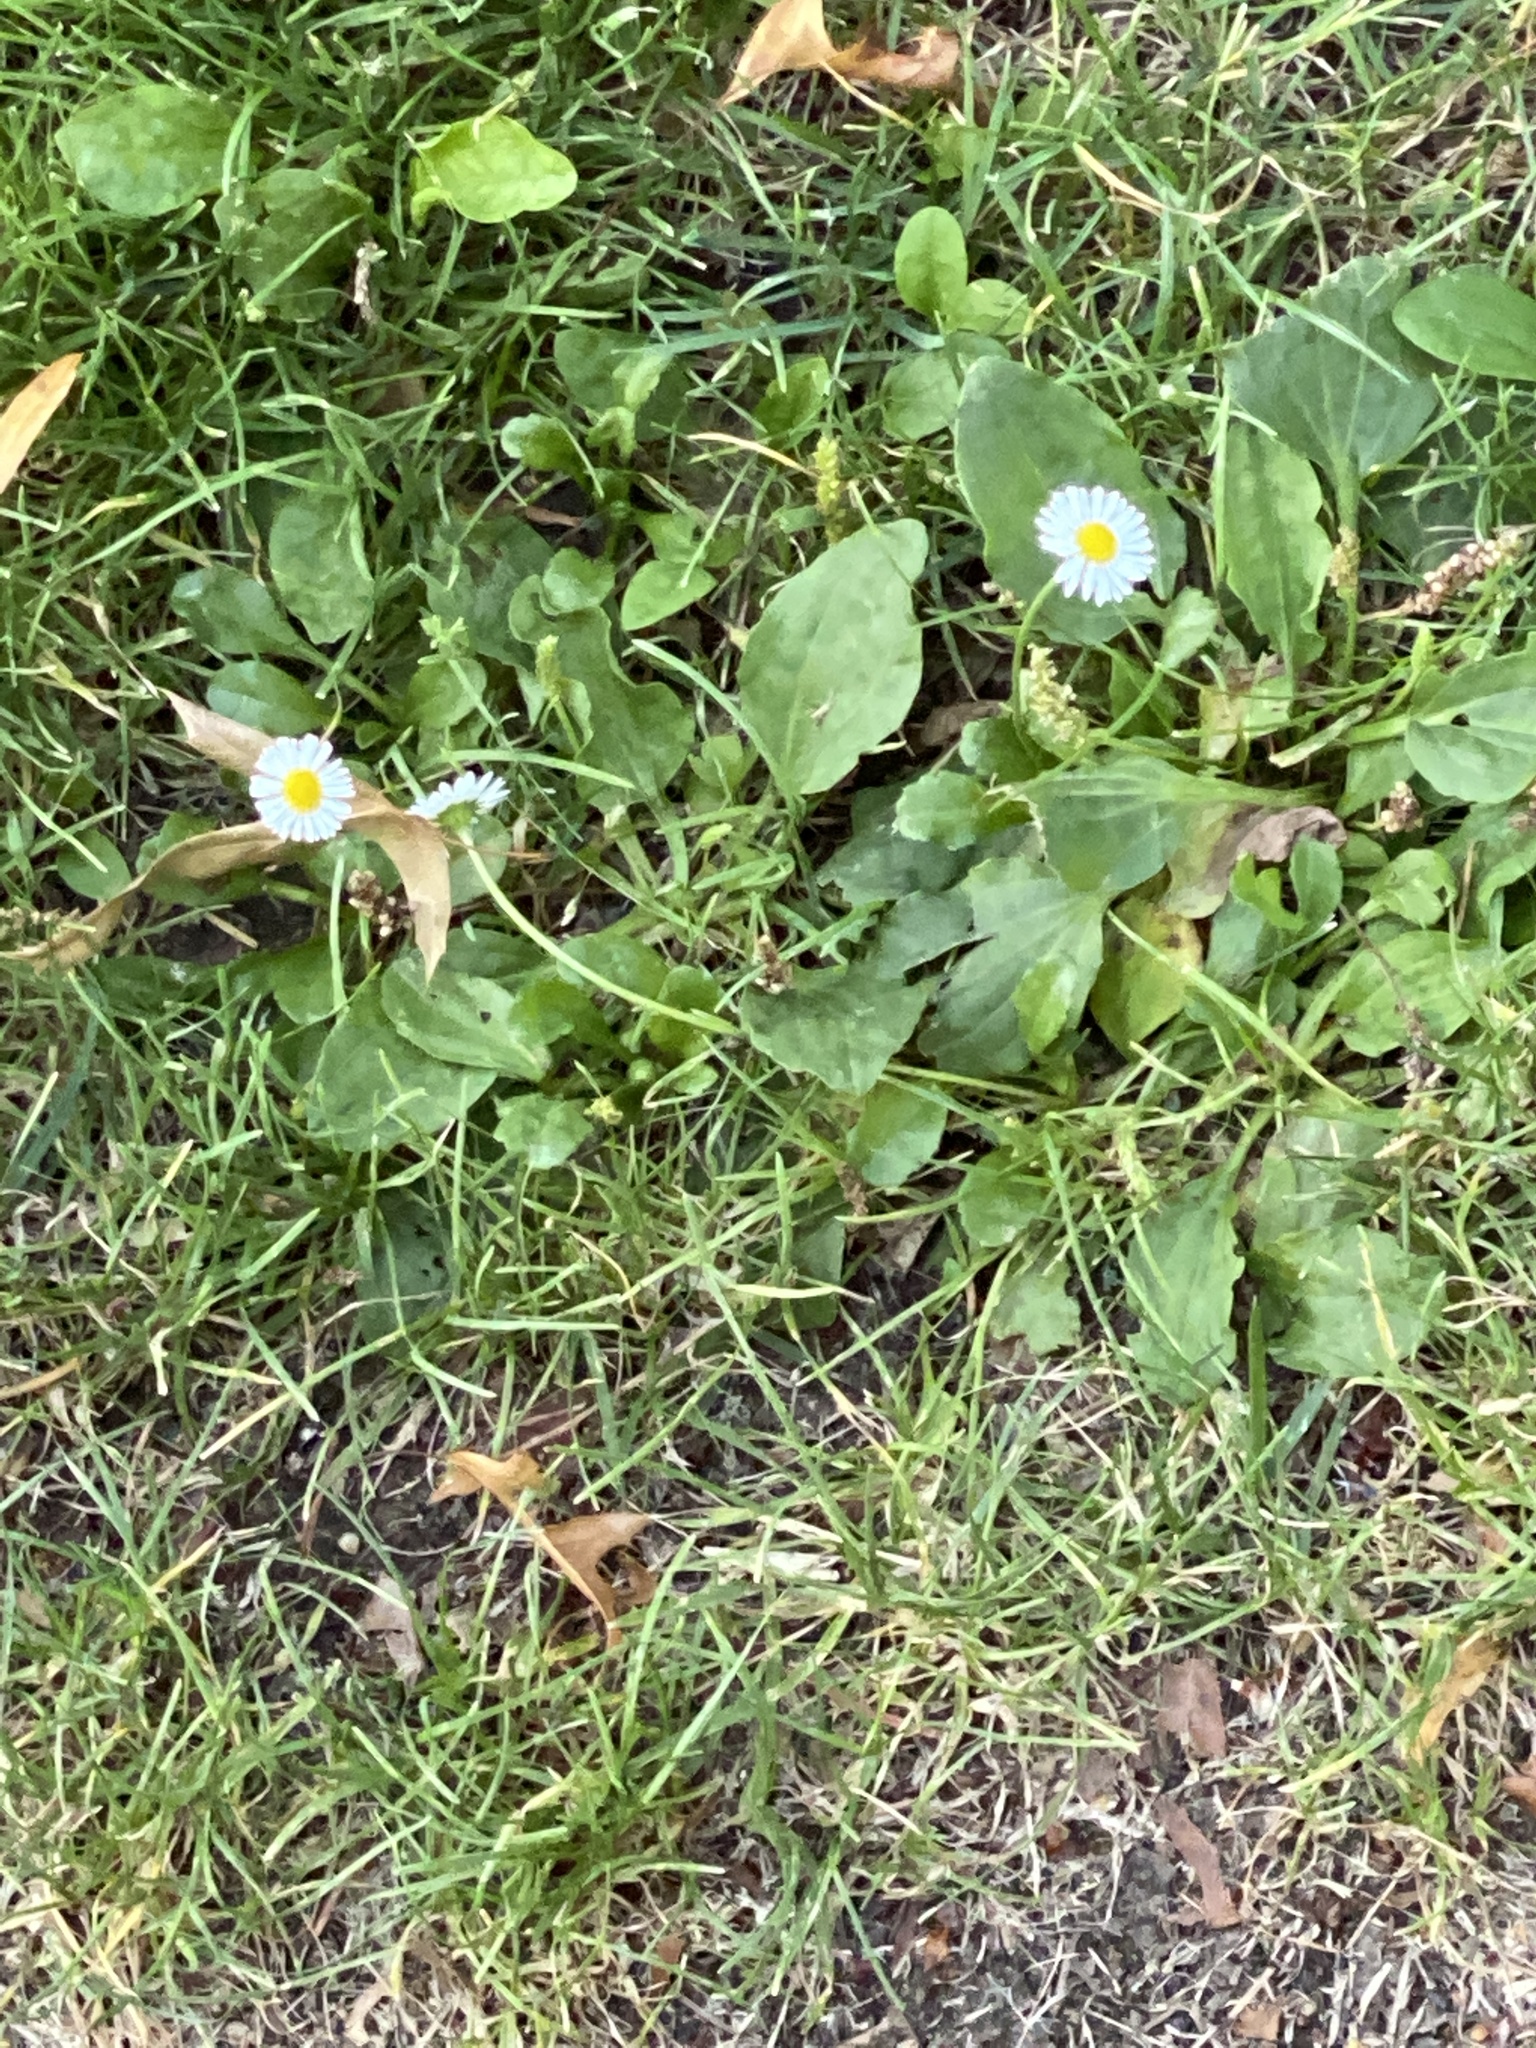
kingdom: Plantae
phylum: Tracheophyta
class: Magnoliopsida
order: Asterales
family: Asteraceae
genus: Bellis
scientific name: Bellis perennis
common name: Lawndaisy
